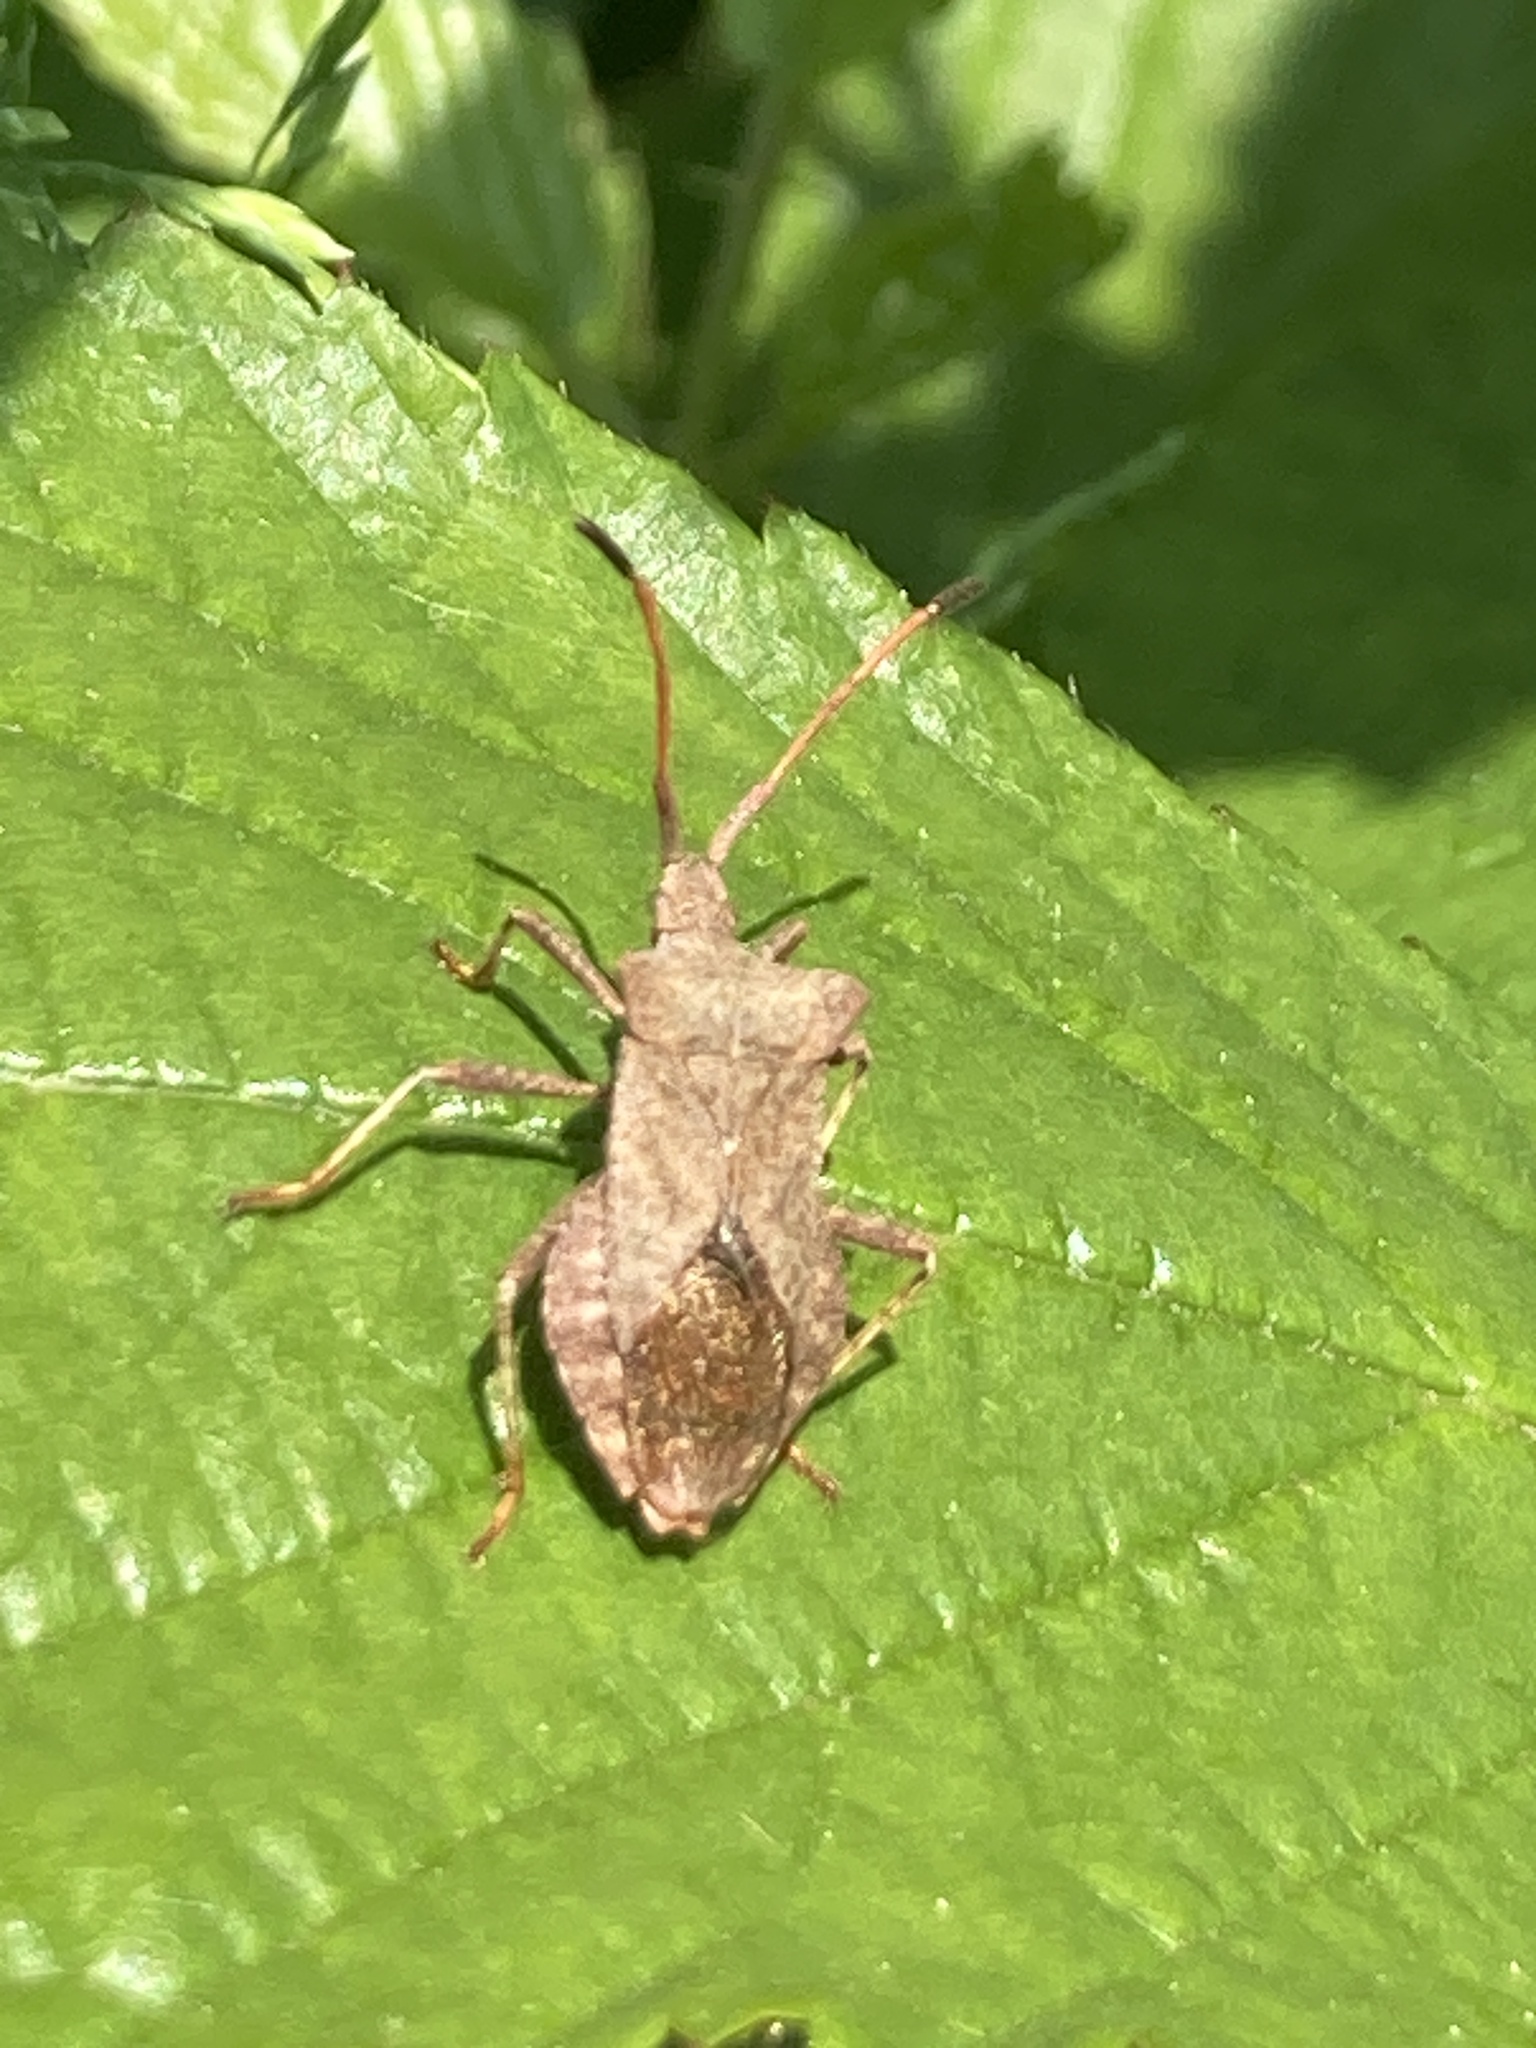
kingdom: Animalia
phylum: Arthropoda
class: Insecta
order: Hemiptera
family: Coreidae
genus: Coreus
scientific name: Coreus marginatus
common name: Dock bug
